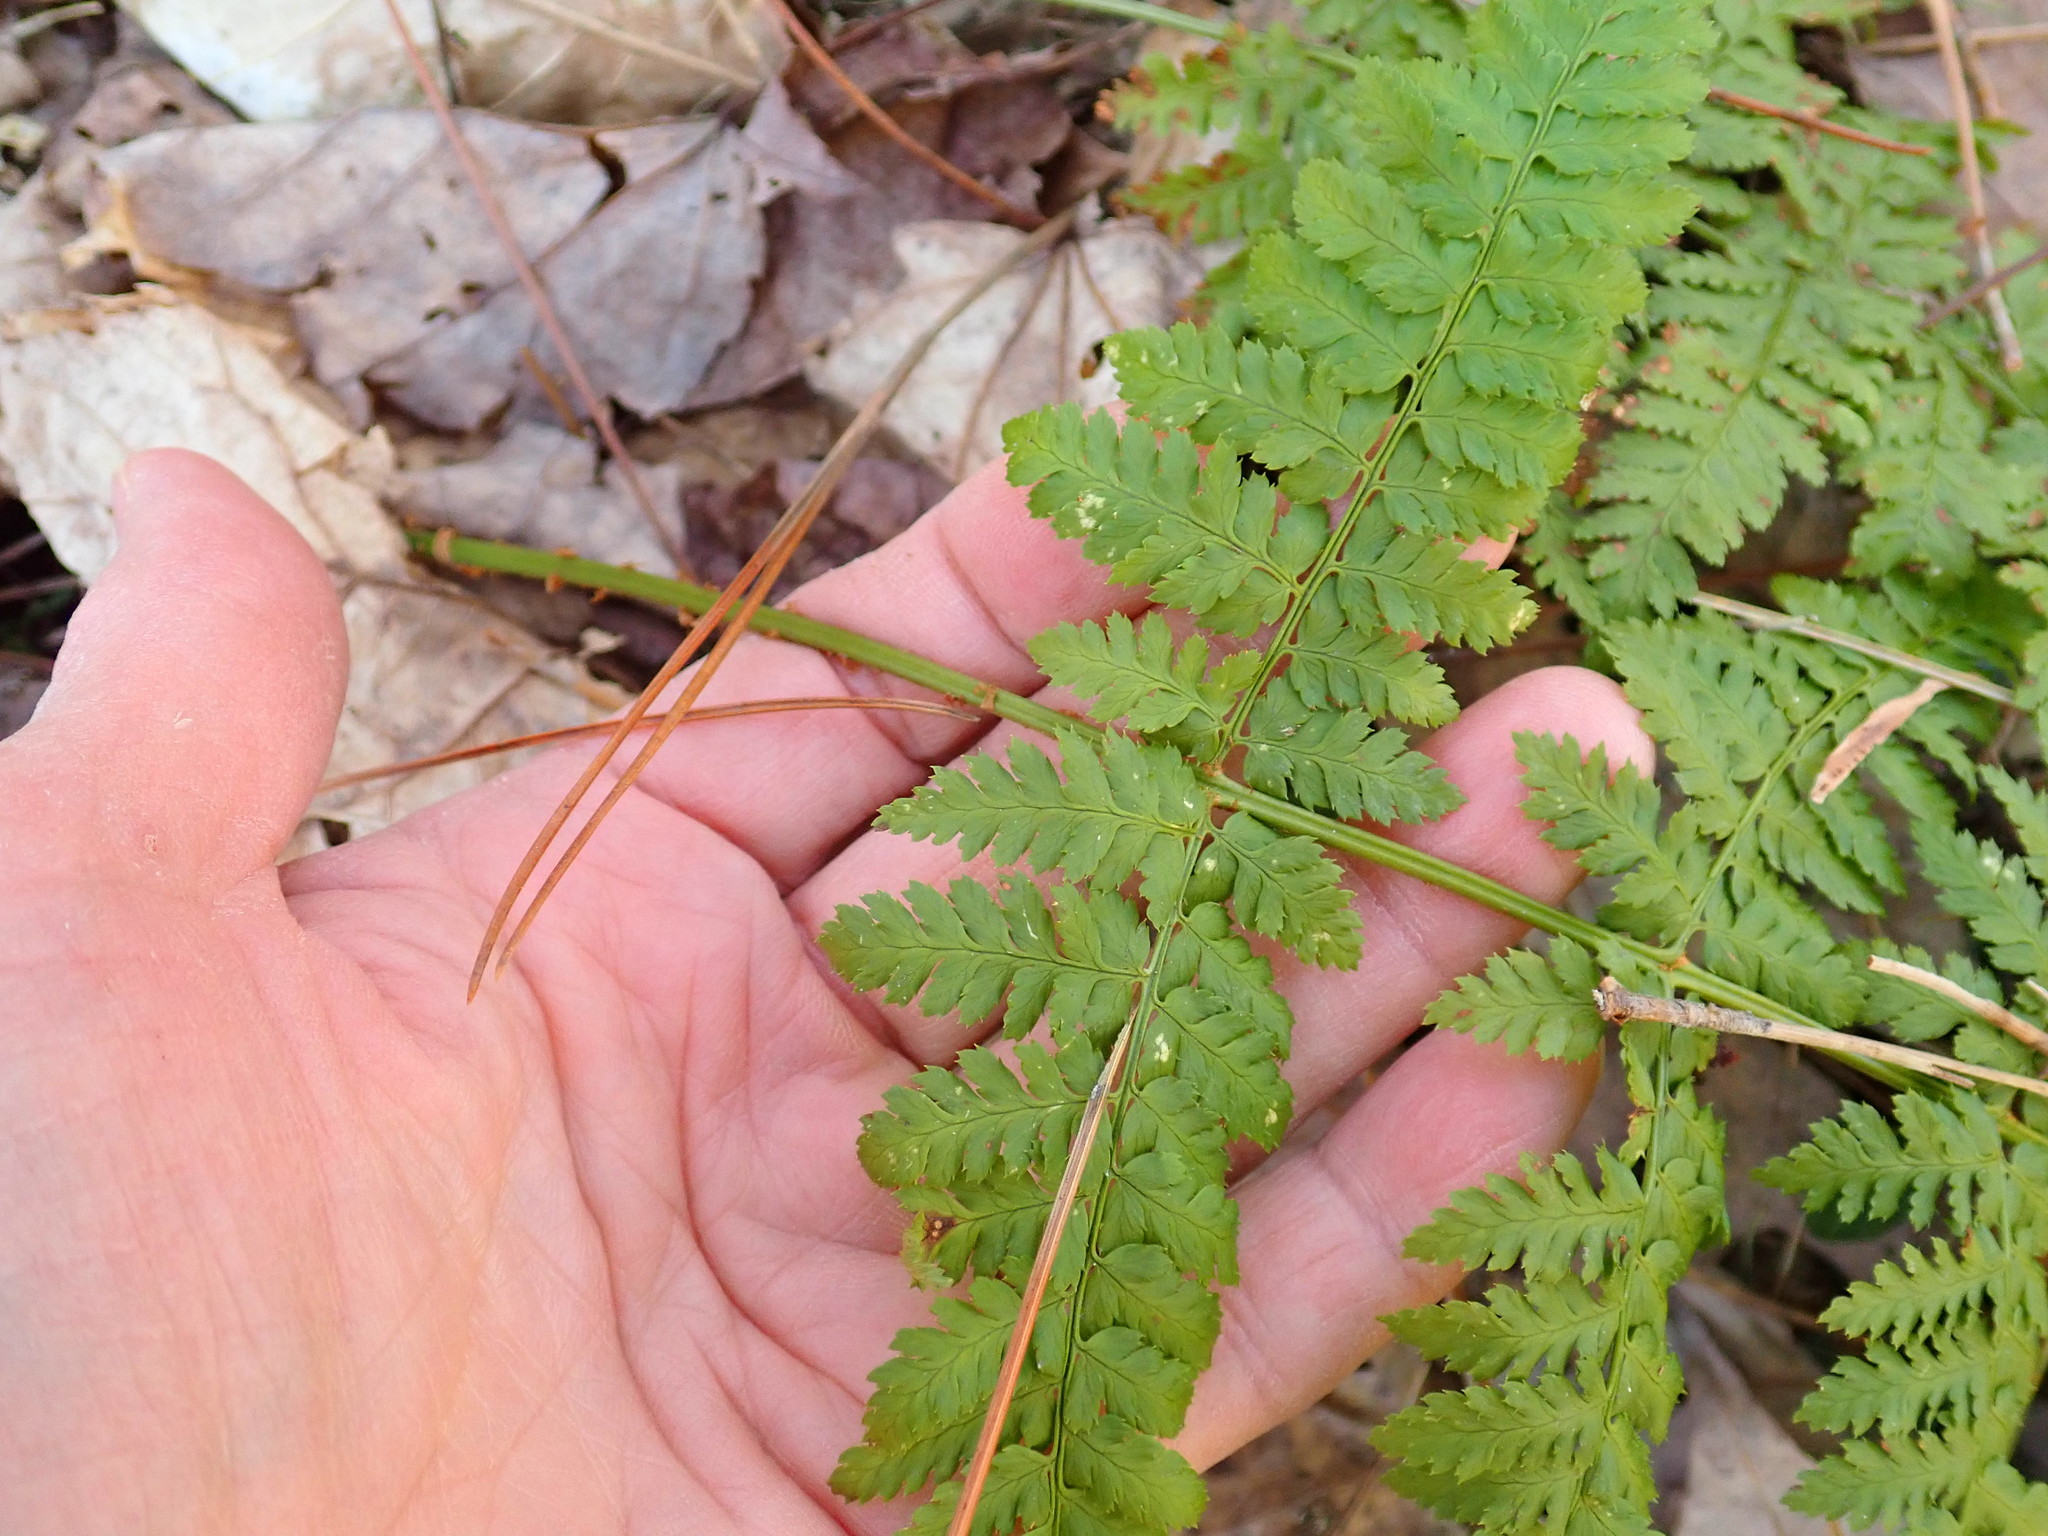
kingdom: Plantae
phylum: Tracheophyta
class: Polypodiopsida
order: Polypodiales
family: Dryopteridaceae
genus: Dryopteris
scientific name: Dryopteris intermedia
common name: Evergreen wood fern
